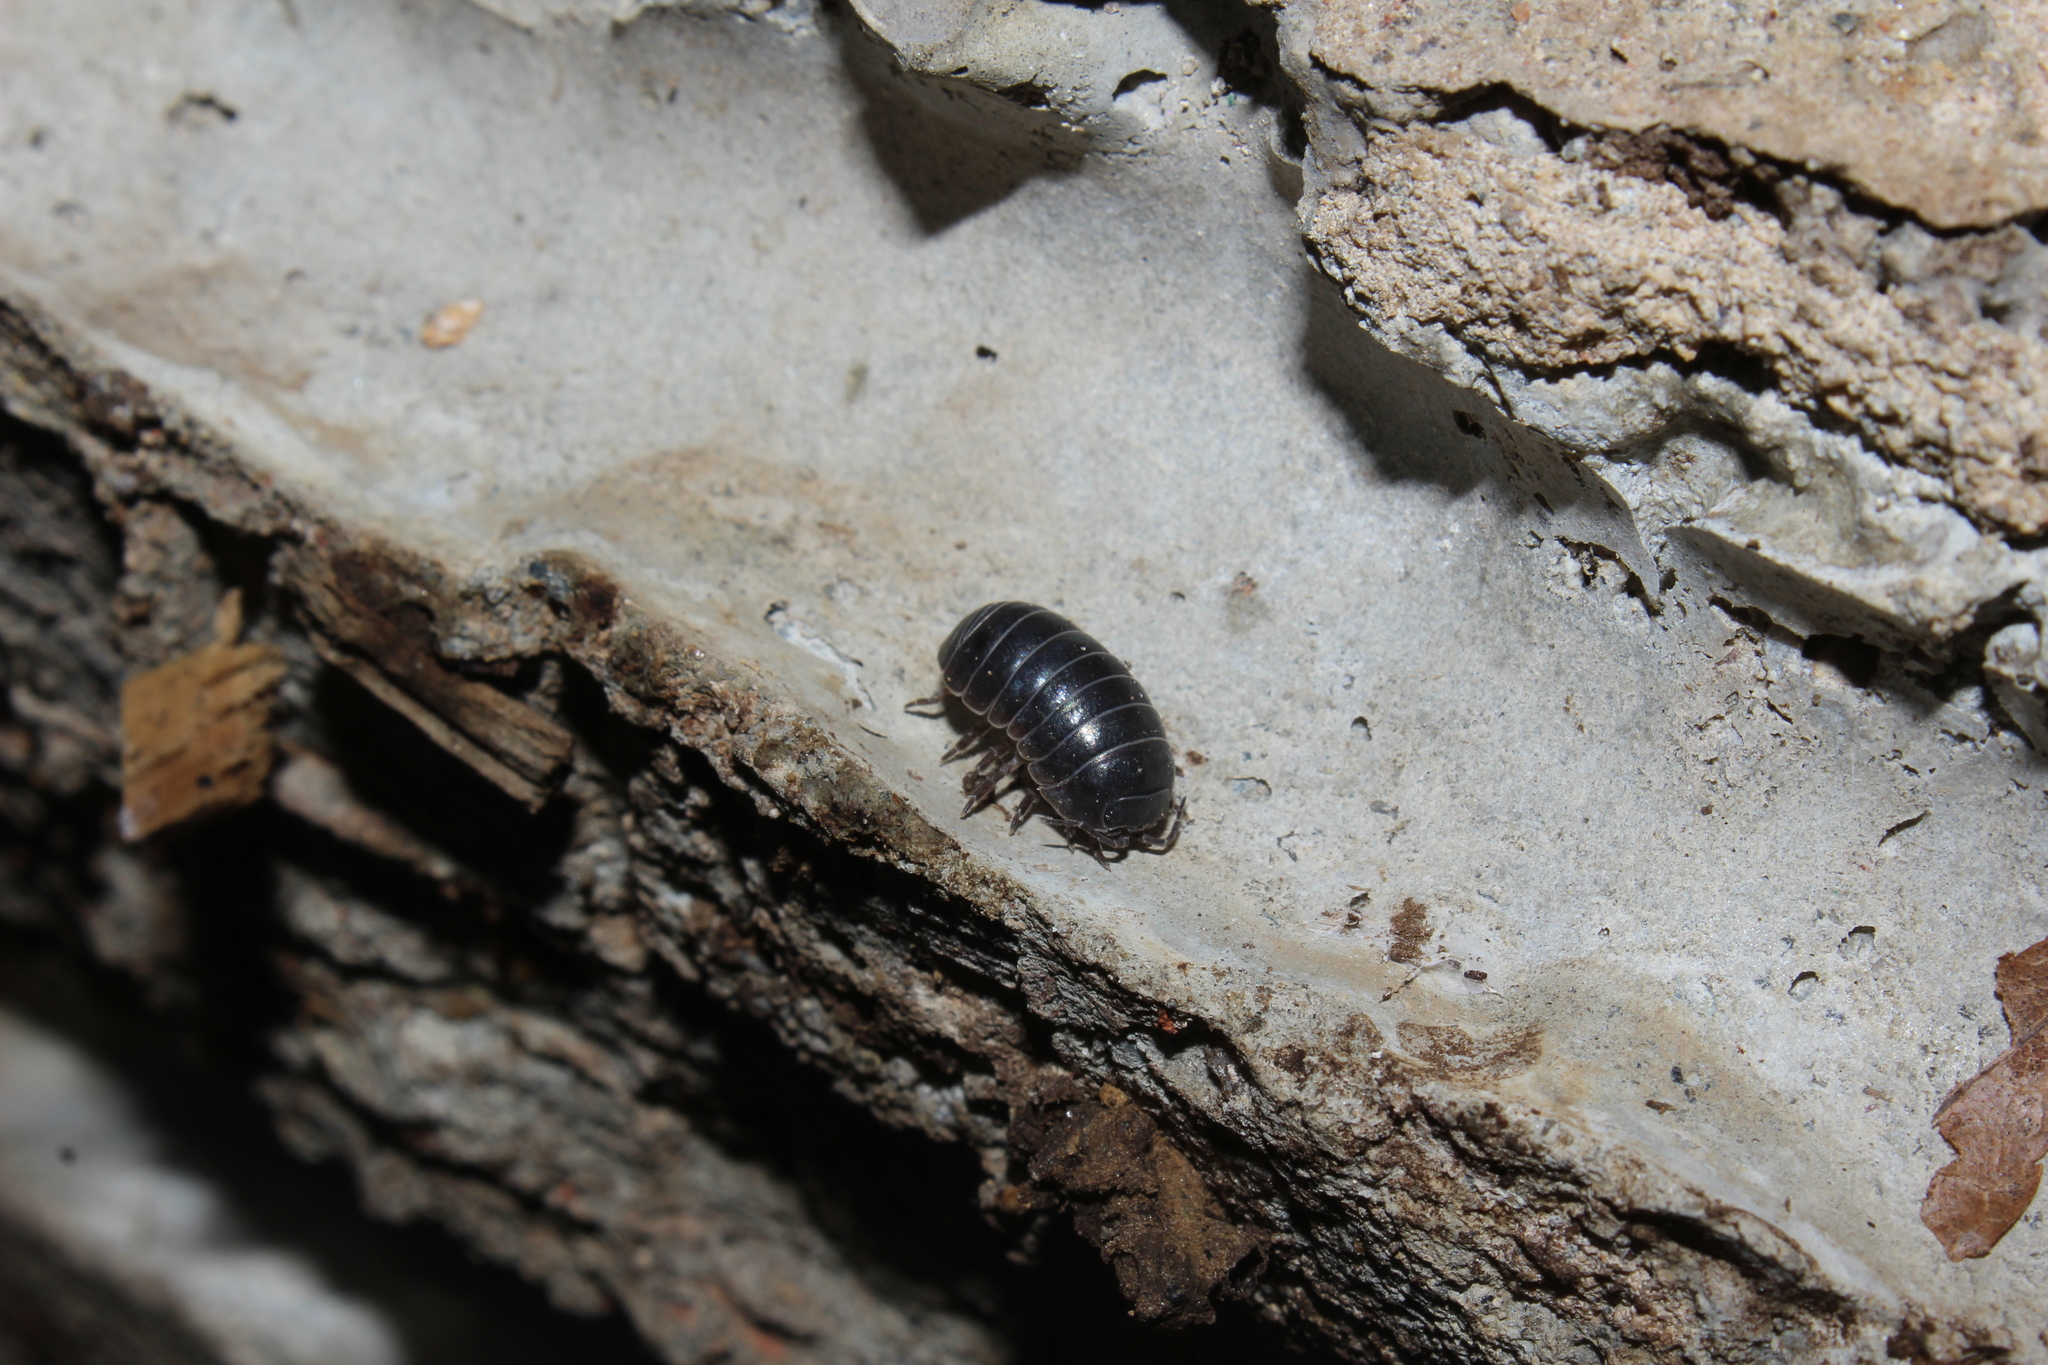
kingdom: Animalia
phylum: Arthropoda
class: Malacostraca
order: Isopoda
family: Armadillidiidae
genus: Armadillidium
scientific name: Armadillidium vulgare
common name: Common pill woodlouse
